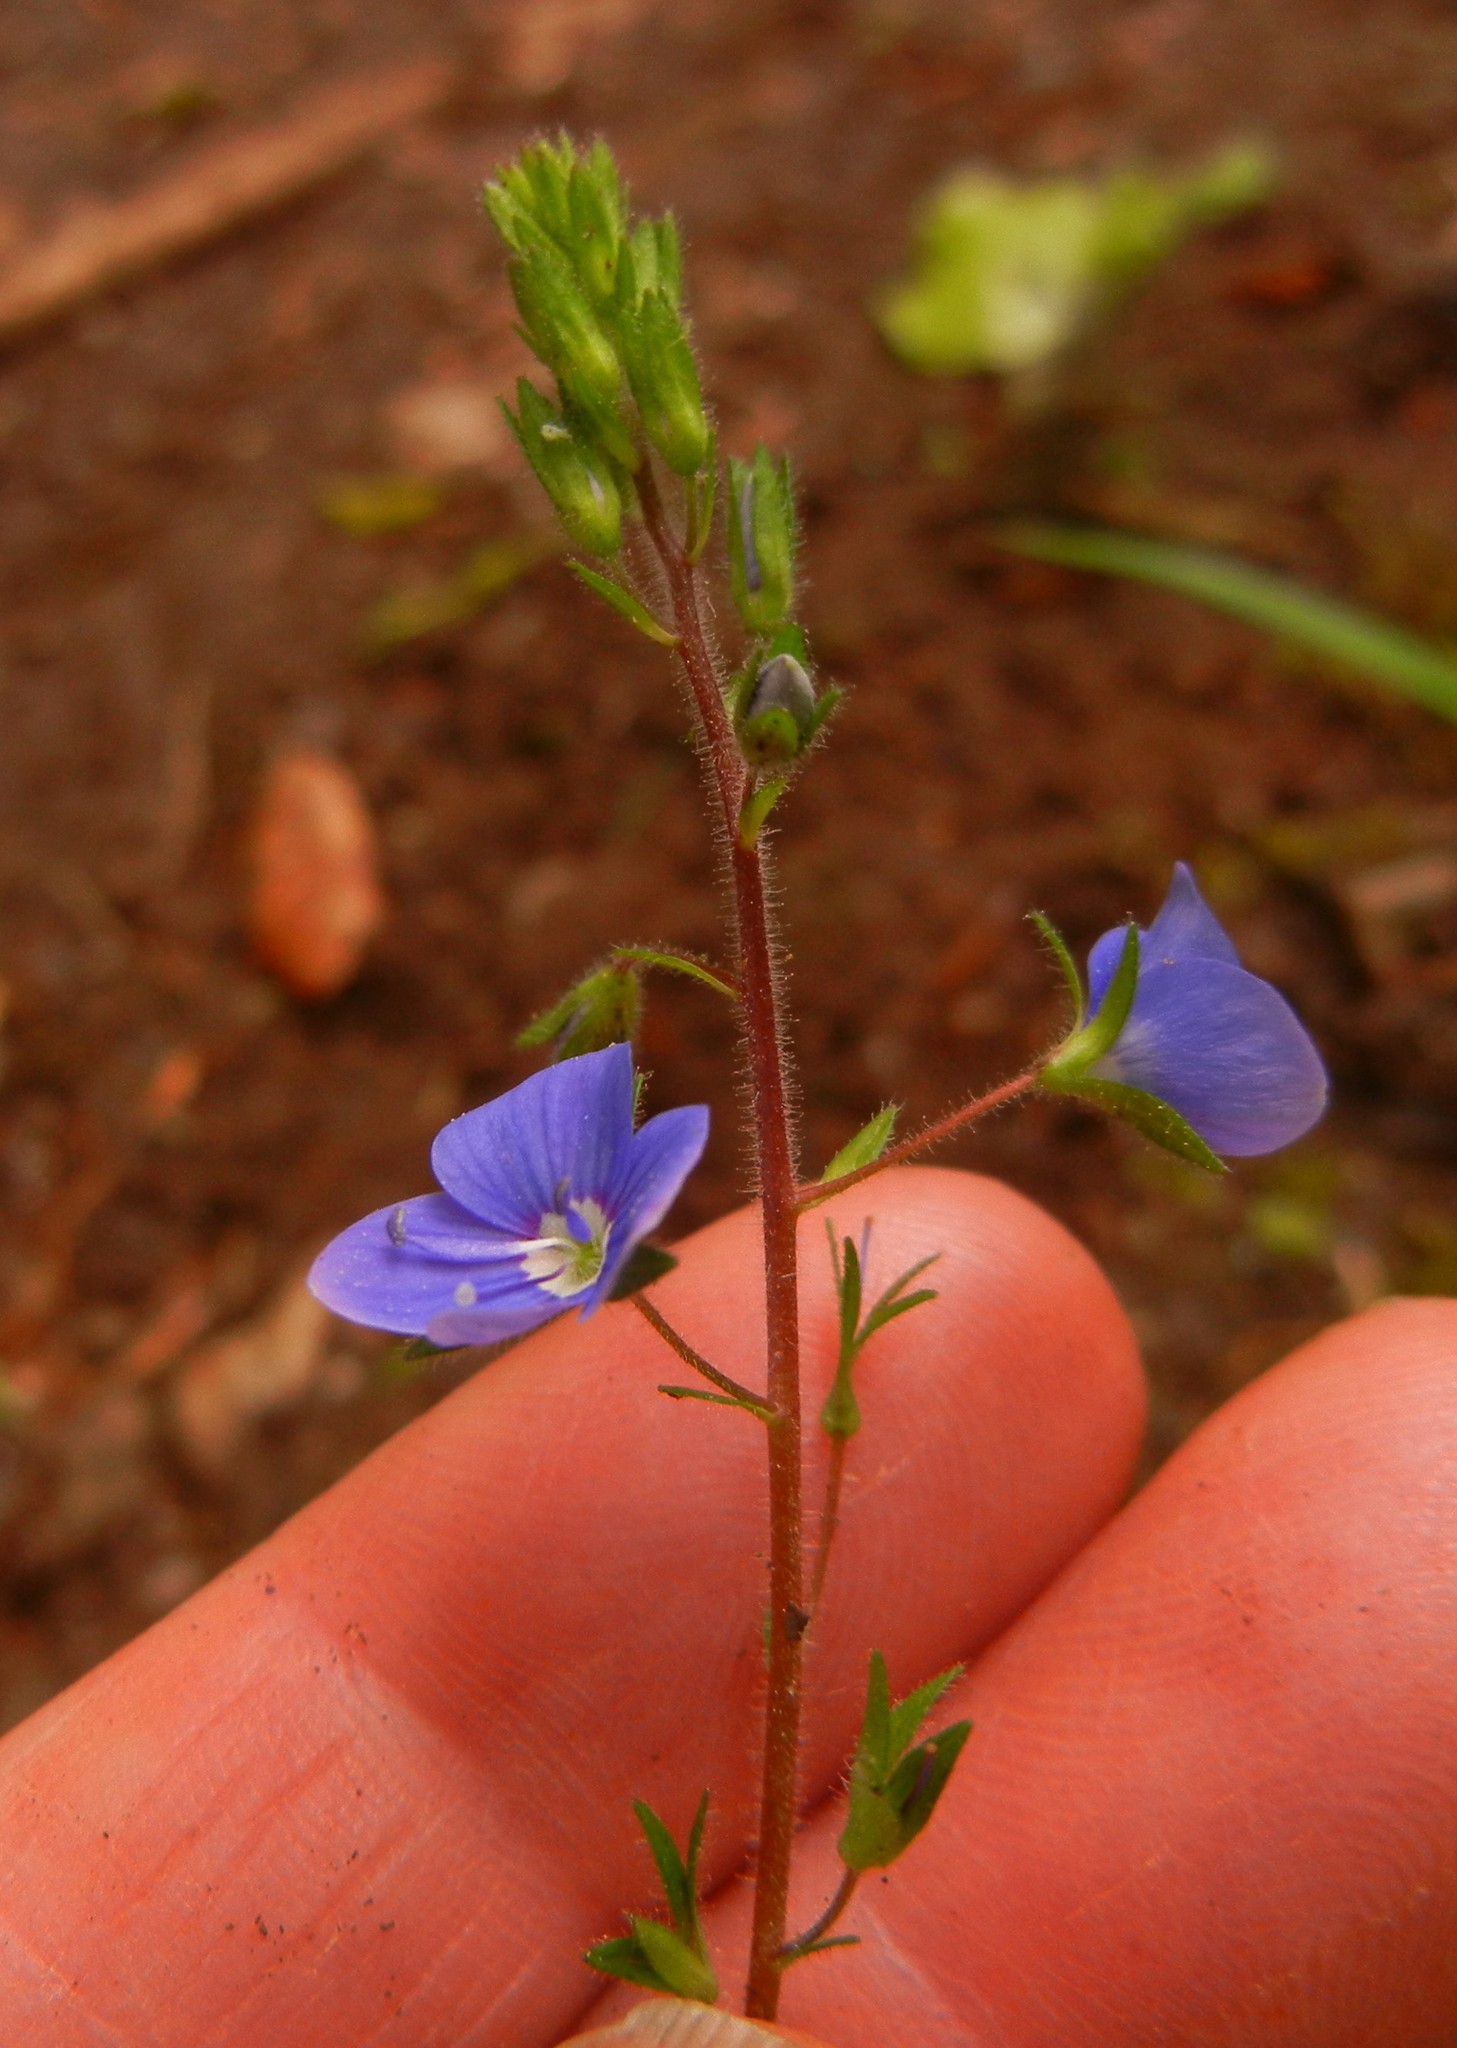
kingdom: Plantae
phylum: Tracheophyta
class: Magnoliopsida
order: Lamiales
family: Plantaginaceae
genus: Veronica
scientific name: Veronica chamaedrys
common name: Germander speedwell
